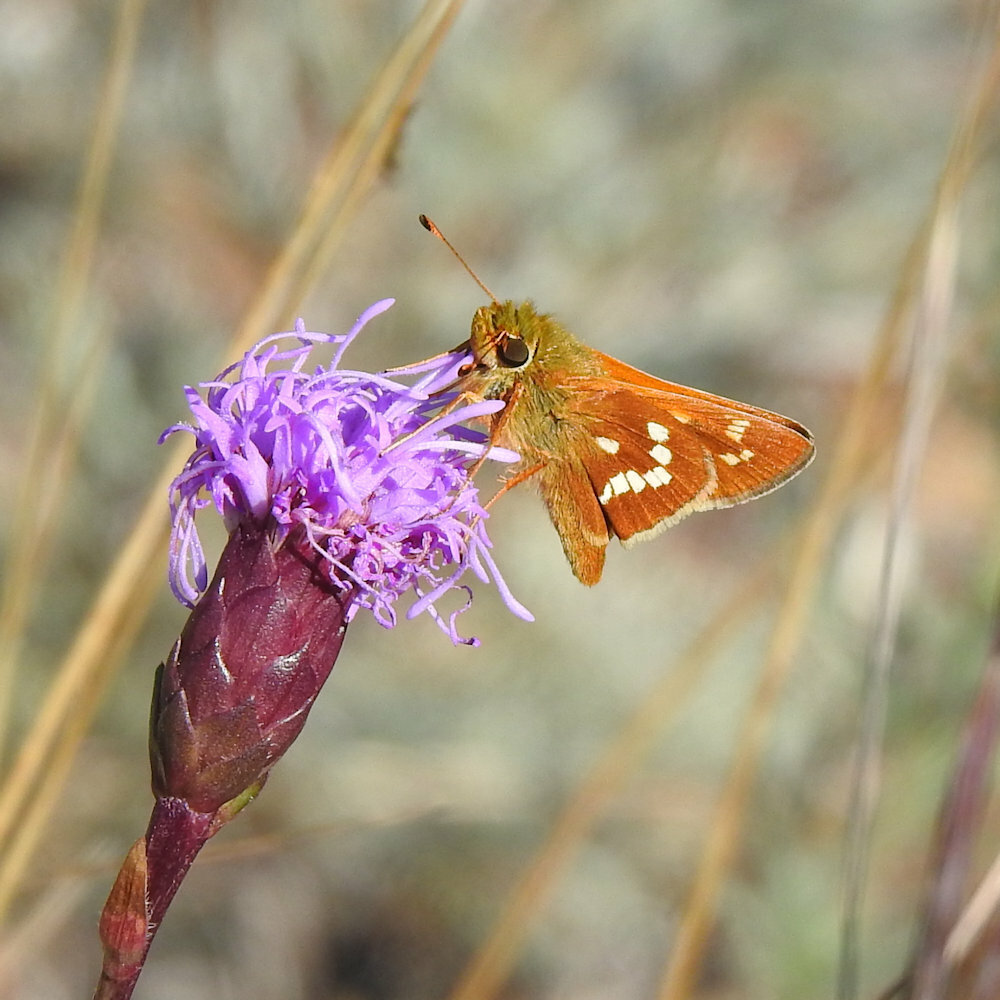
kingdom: Animalia
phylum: Arthropoda
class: Insecta
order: Lepidoptera
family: Hesperiidae
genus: Hesperia
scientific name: Hesperia leonardus
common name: Leonard's skipper
